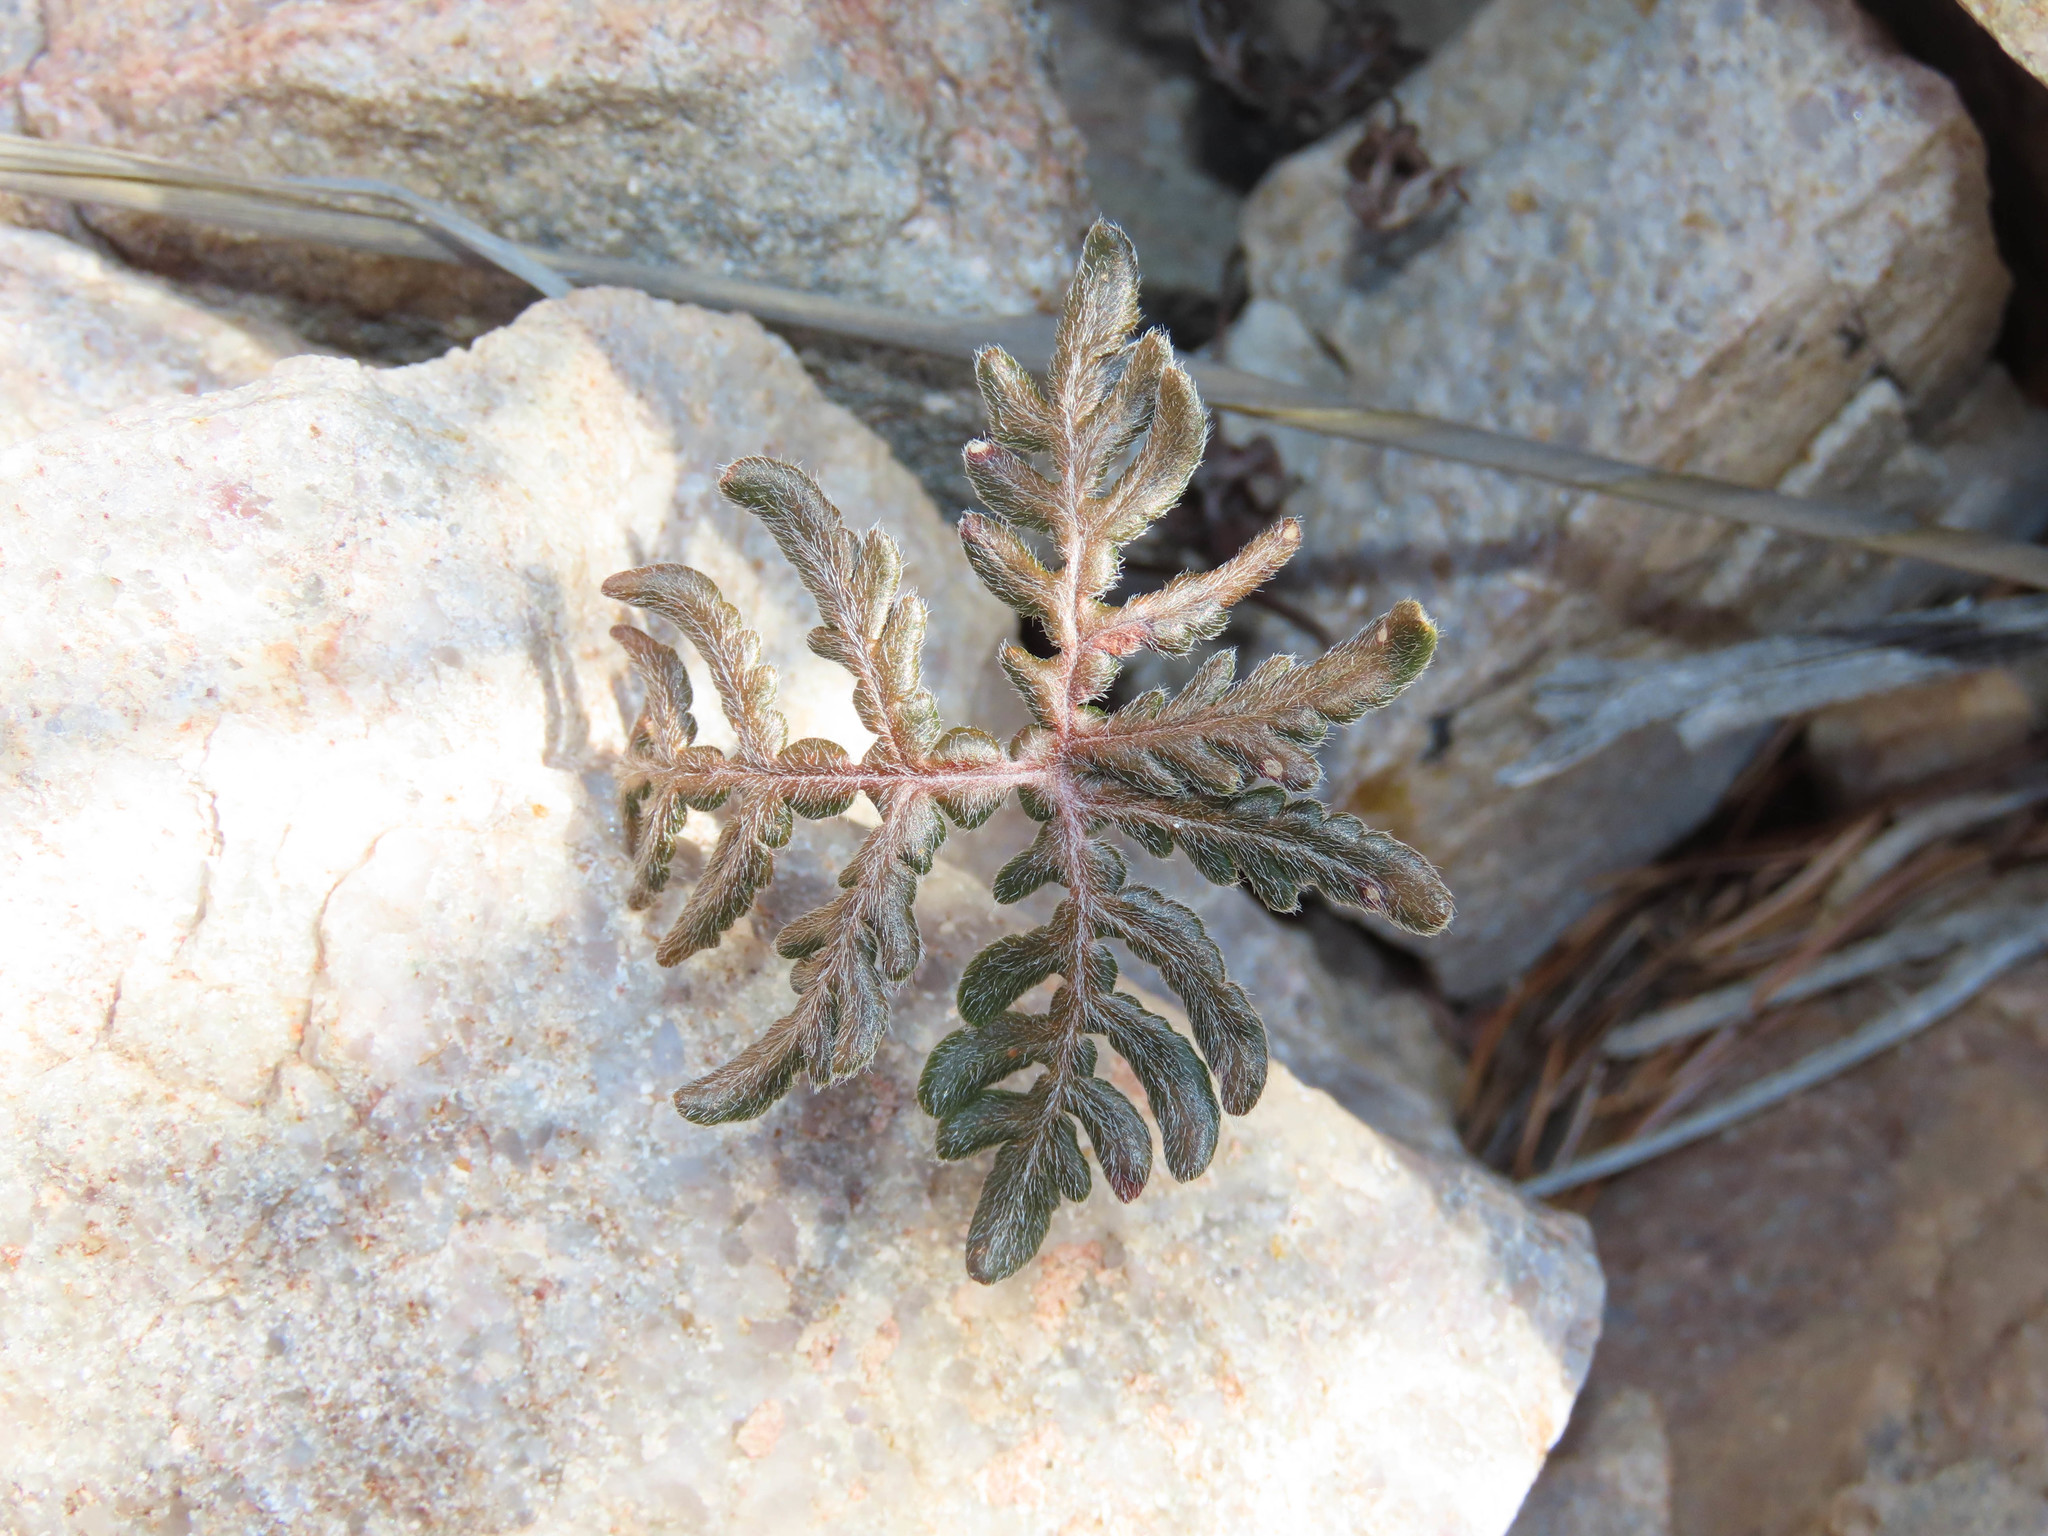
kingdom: Plantae
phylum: Tracheophyta
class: Polypodiopsida
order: Polypodiales
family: Pteridaceae
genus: Bommeria
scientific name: Bommeria hispida
